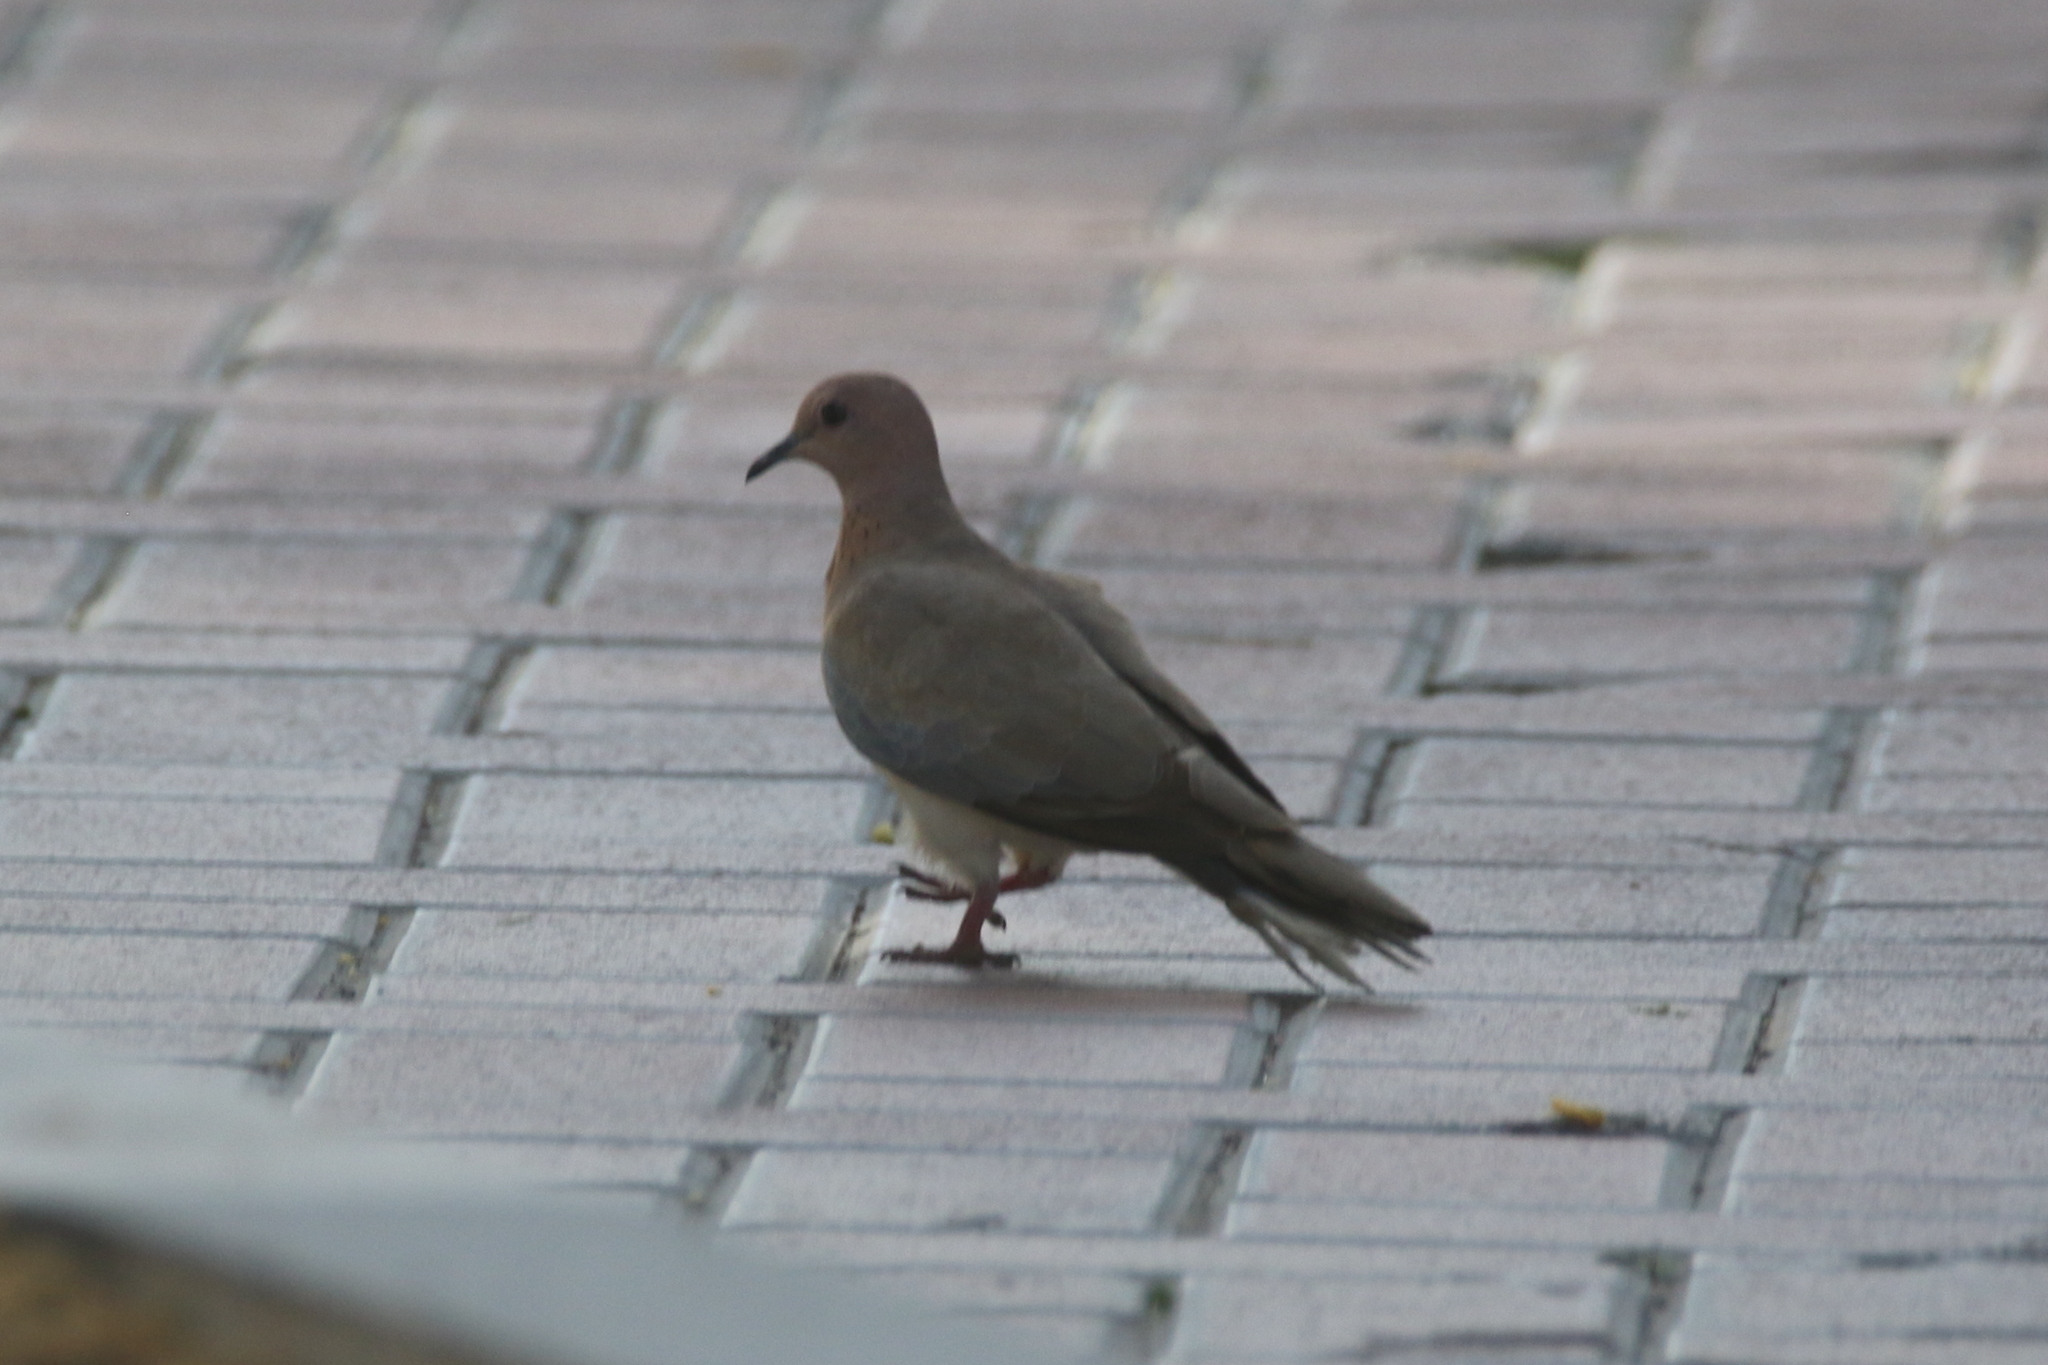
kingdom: Animalia
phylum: Chordata
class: Aves
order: Columbiformes
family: Columbidae
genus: Spilopelia
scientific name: Spilopelia senegalensis
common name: Laughing dove
